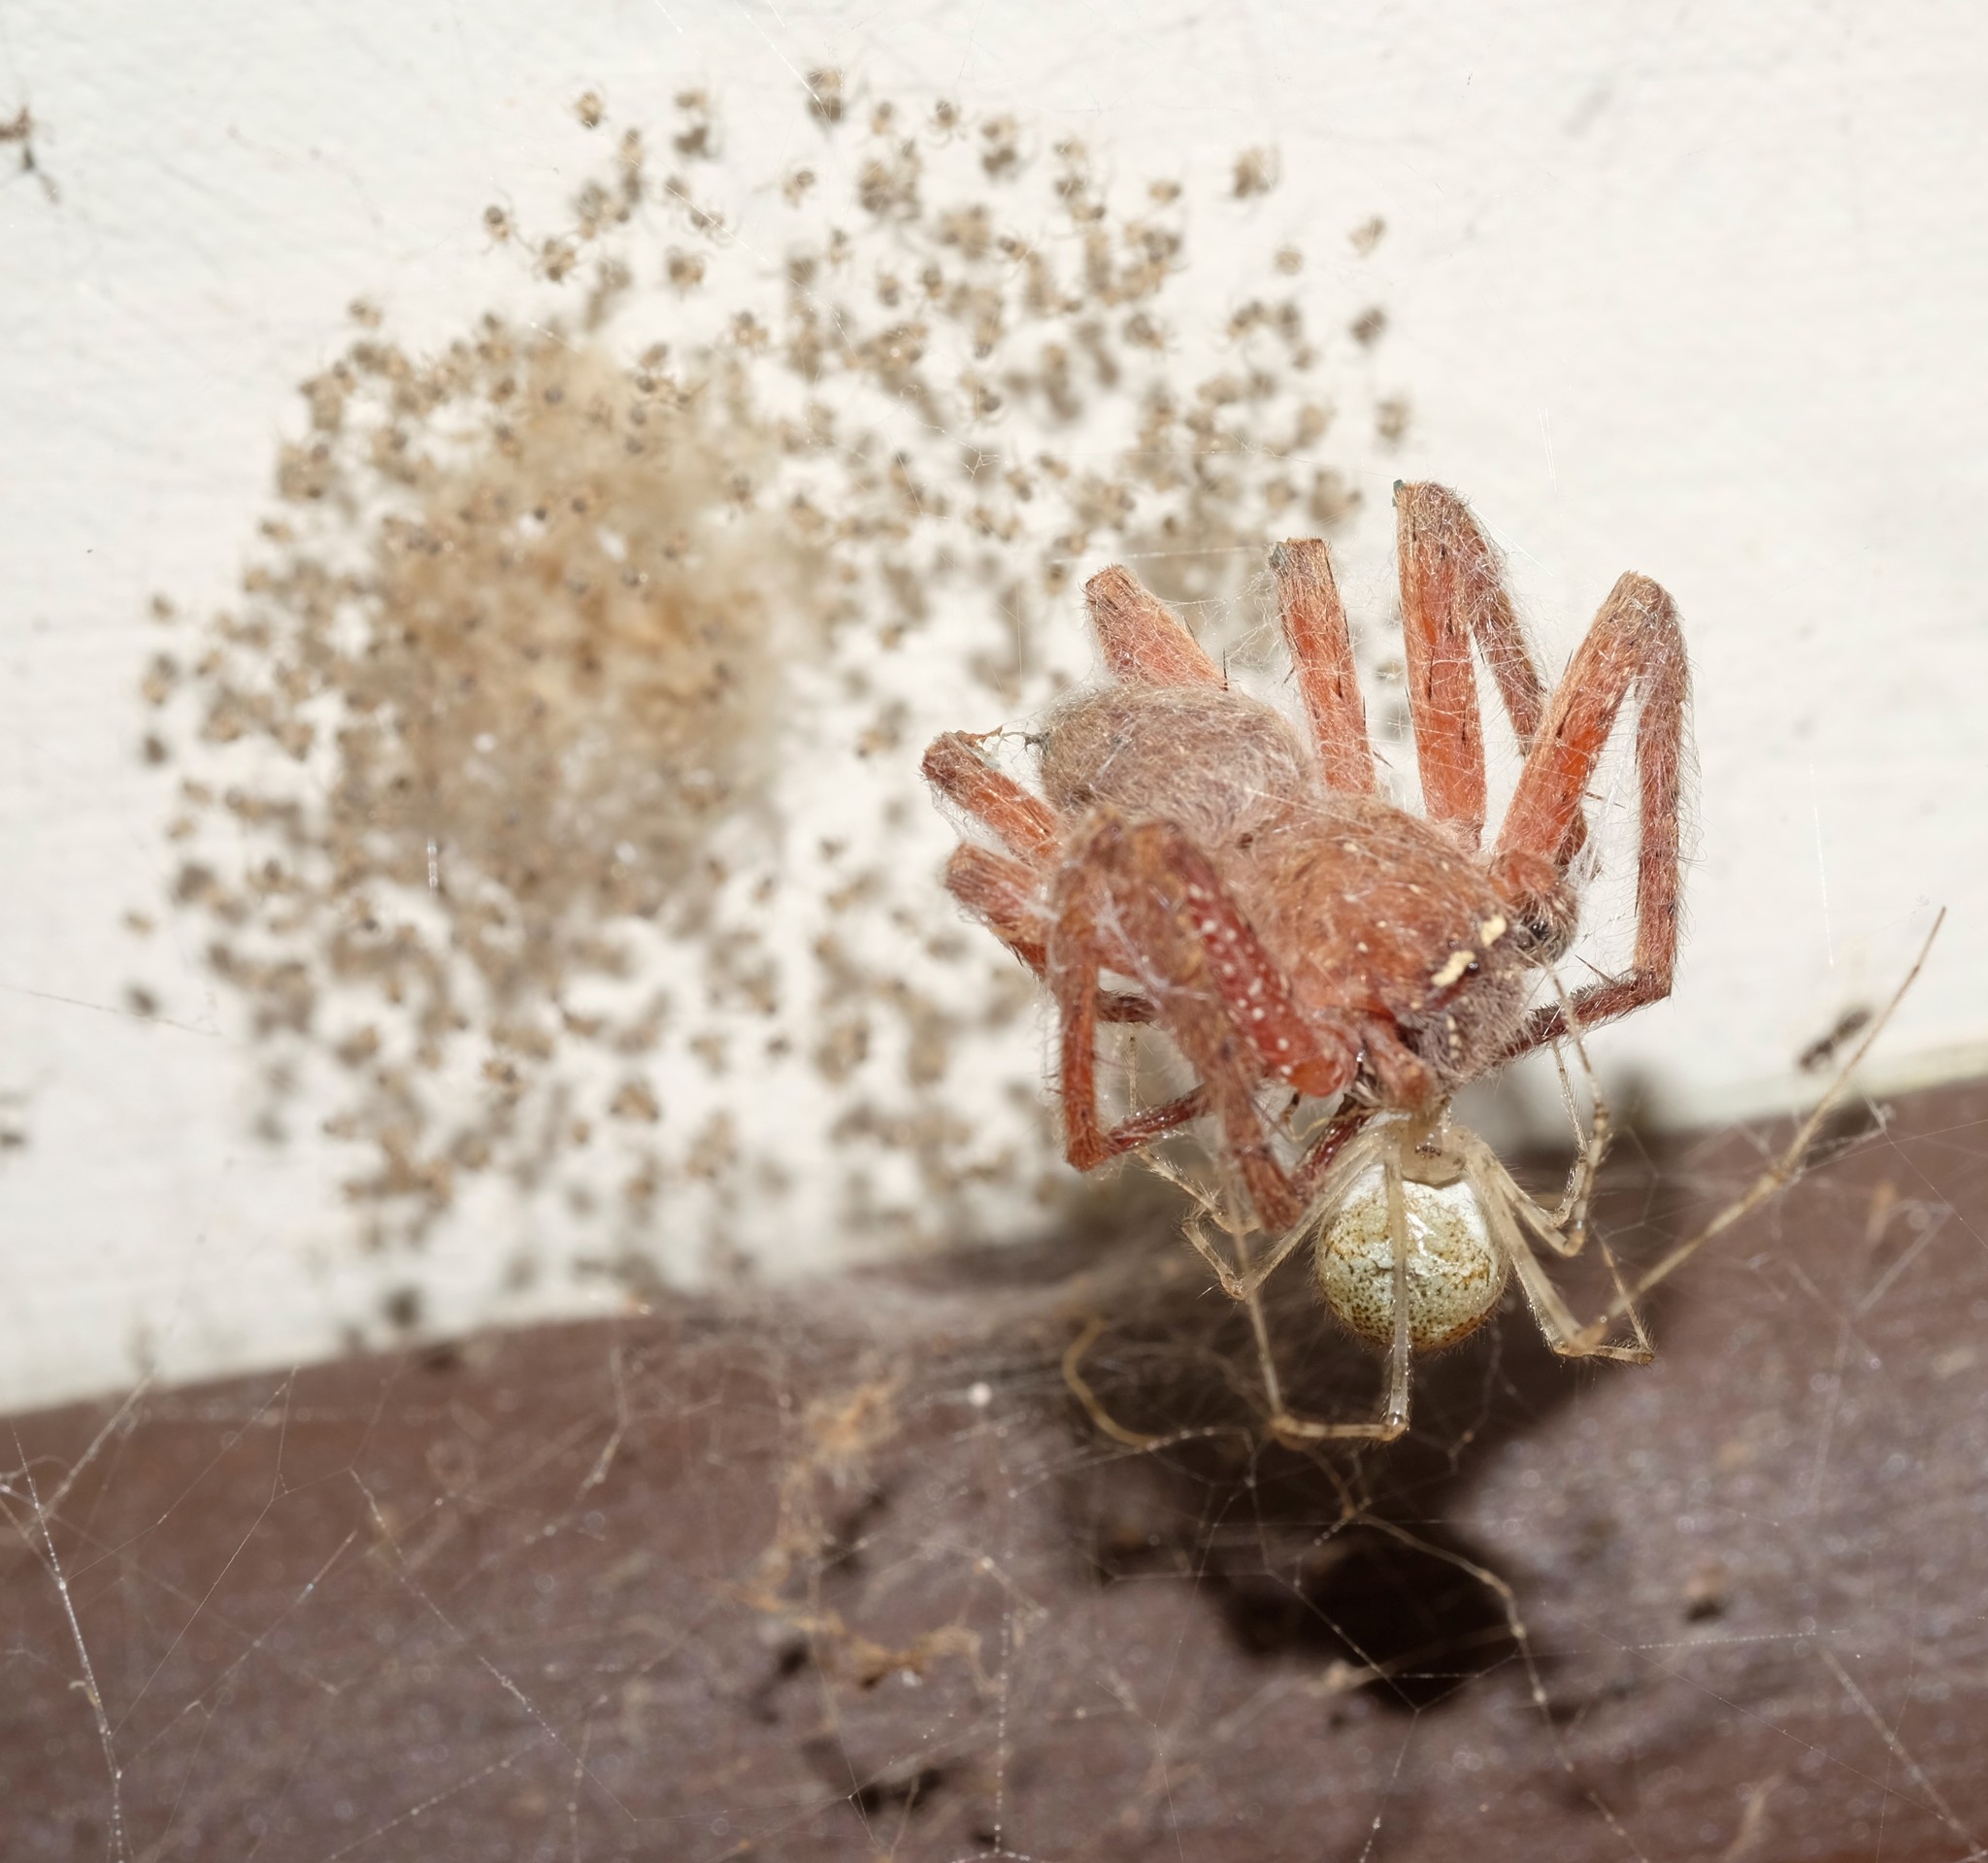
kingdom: Animalia
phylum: Arthropoda
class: Arachnida
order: Araneae
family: Theridiidae
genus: Cryptachaea
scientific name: Cryptachaea gigantipes
